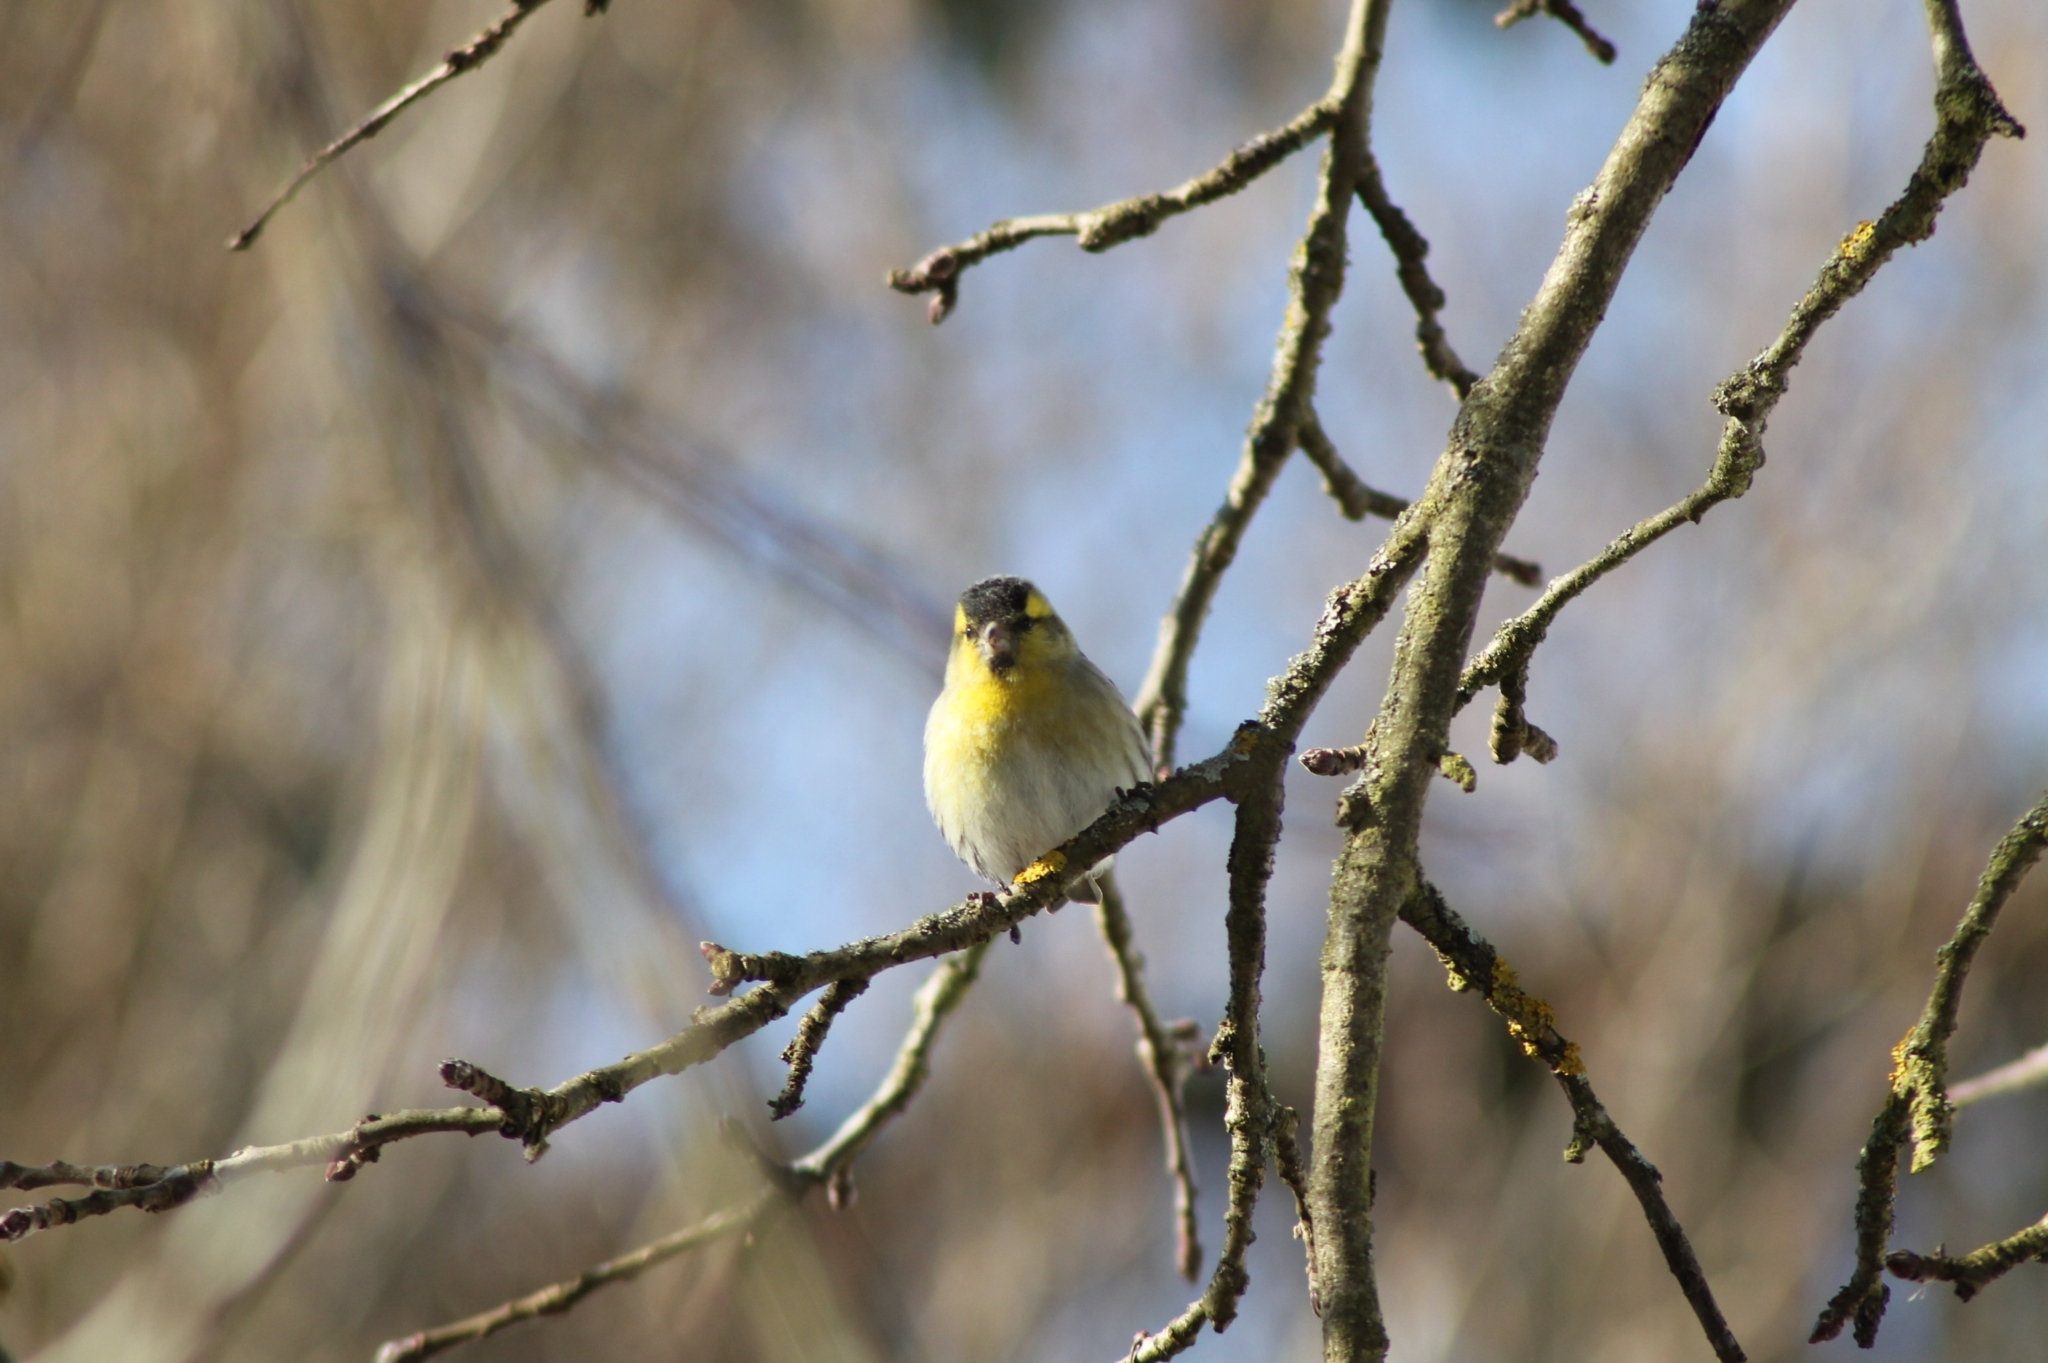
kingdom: Animalia
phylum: Chordata
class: Aves
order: Passeriformes
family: Fringillidae
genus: Spinus
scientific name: Spinus spinus
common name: Eurasian siskin
